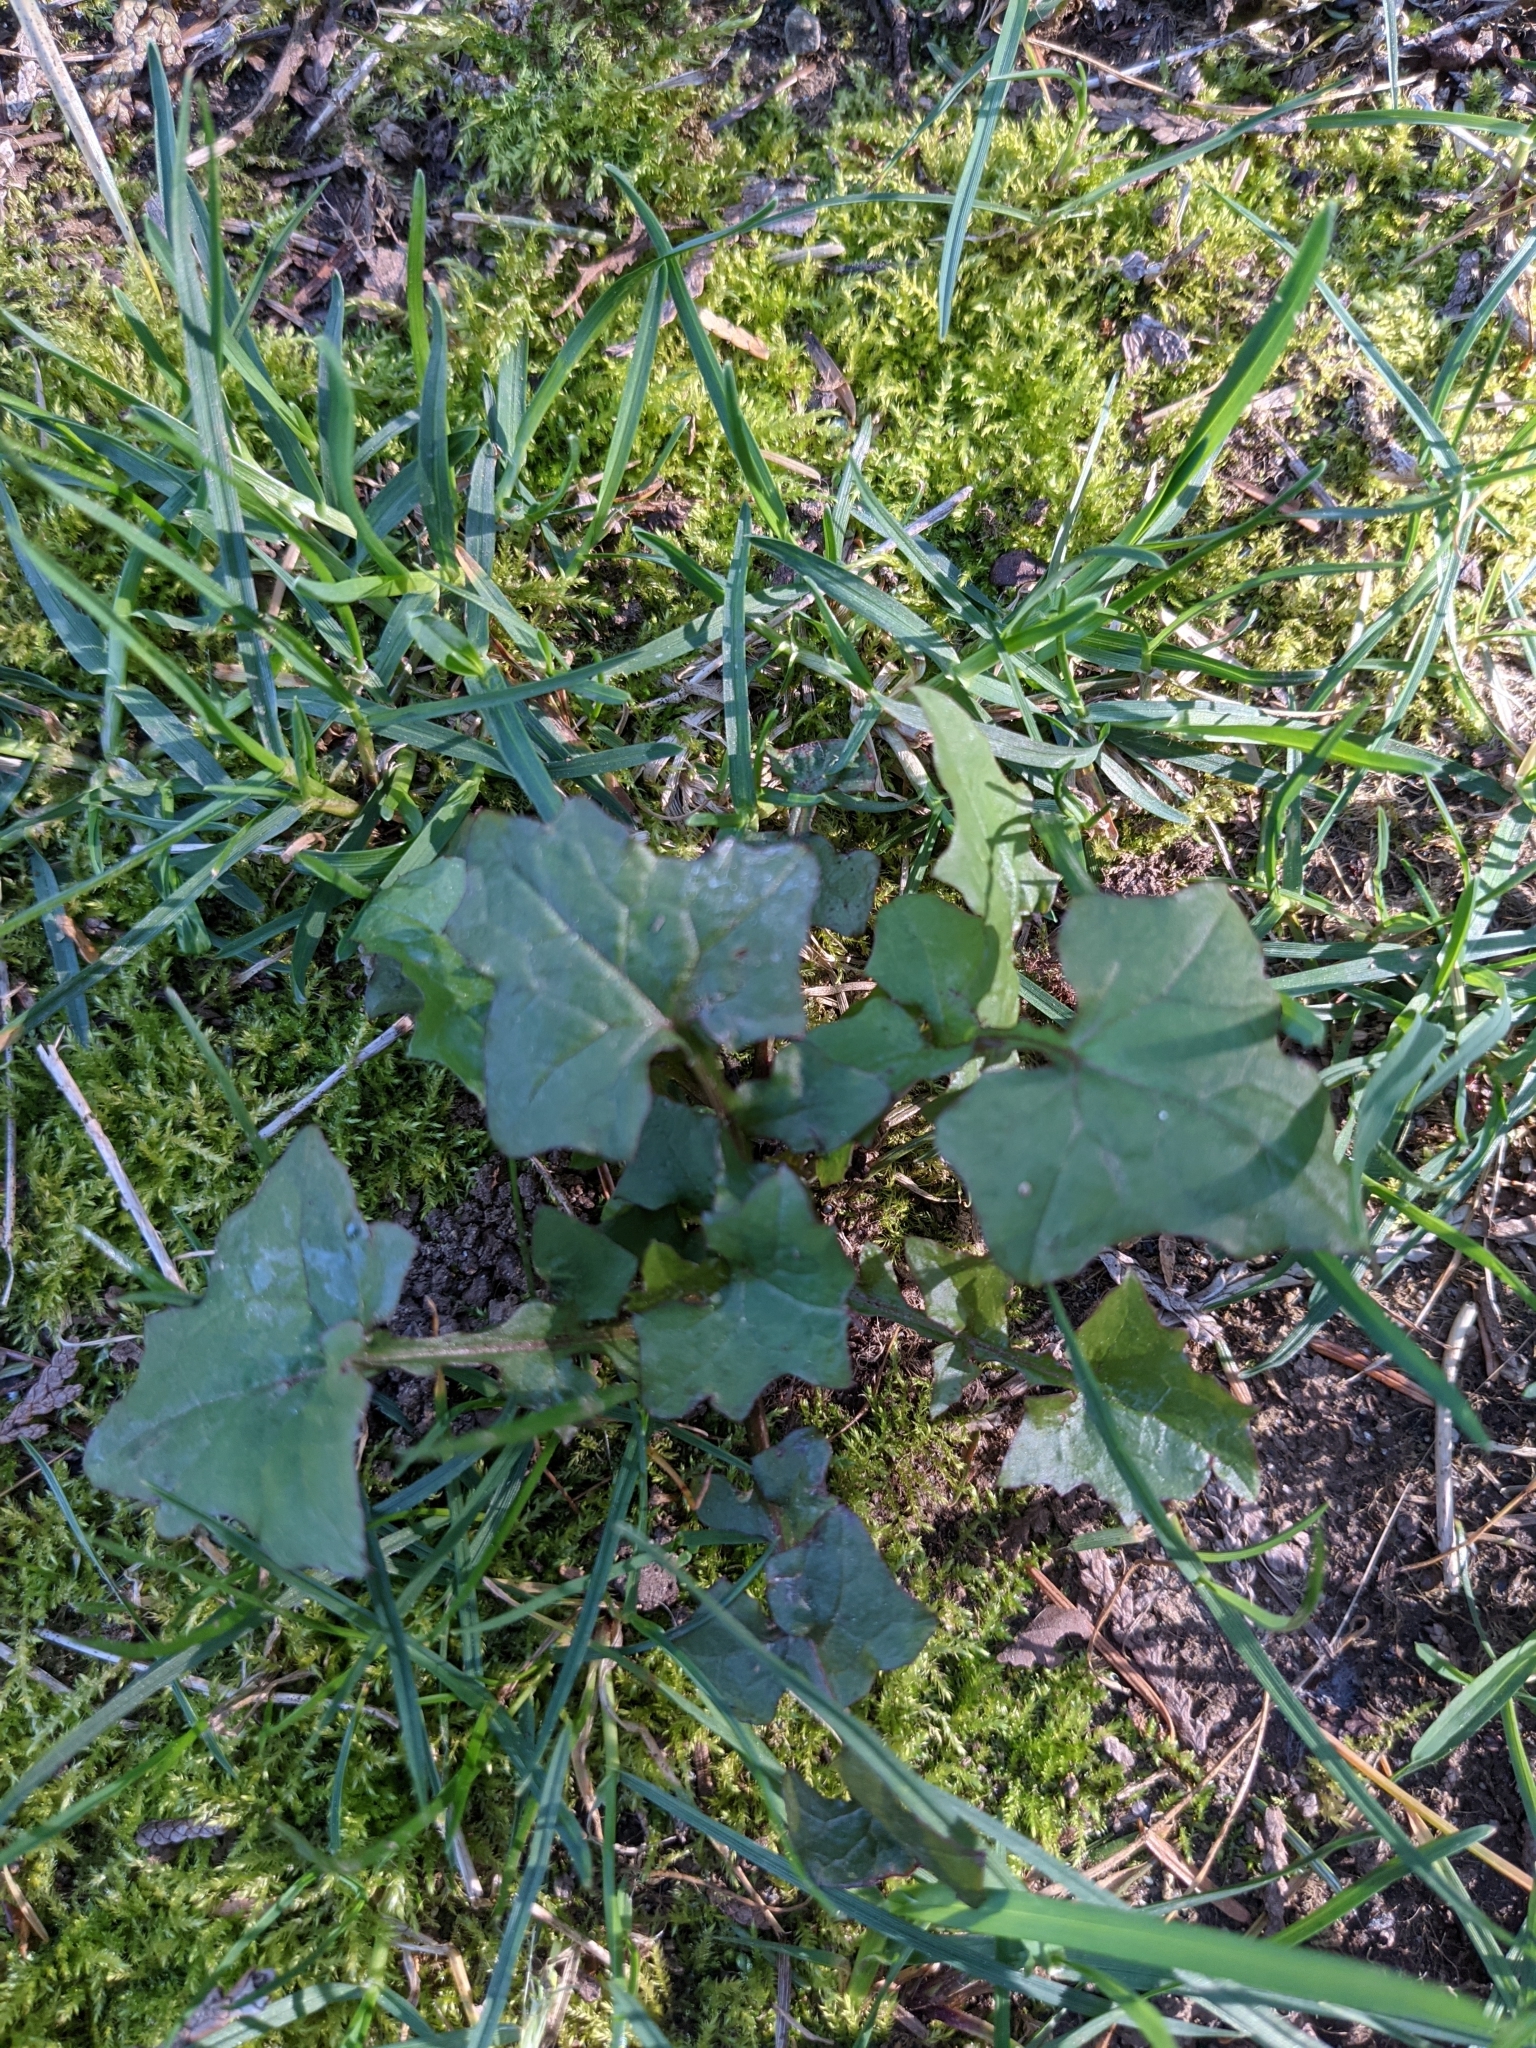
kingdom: Plantae
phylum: Tracheophyta
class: Magnoliopsida
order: Asterales
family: Asteraceae
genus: Mycelis
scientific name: Mycelis muralis
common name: Wall lettuce
